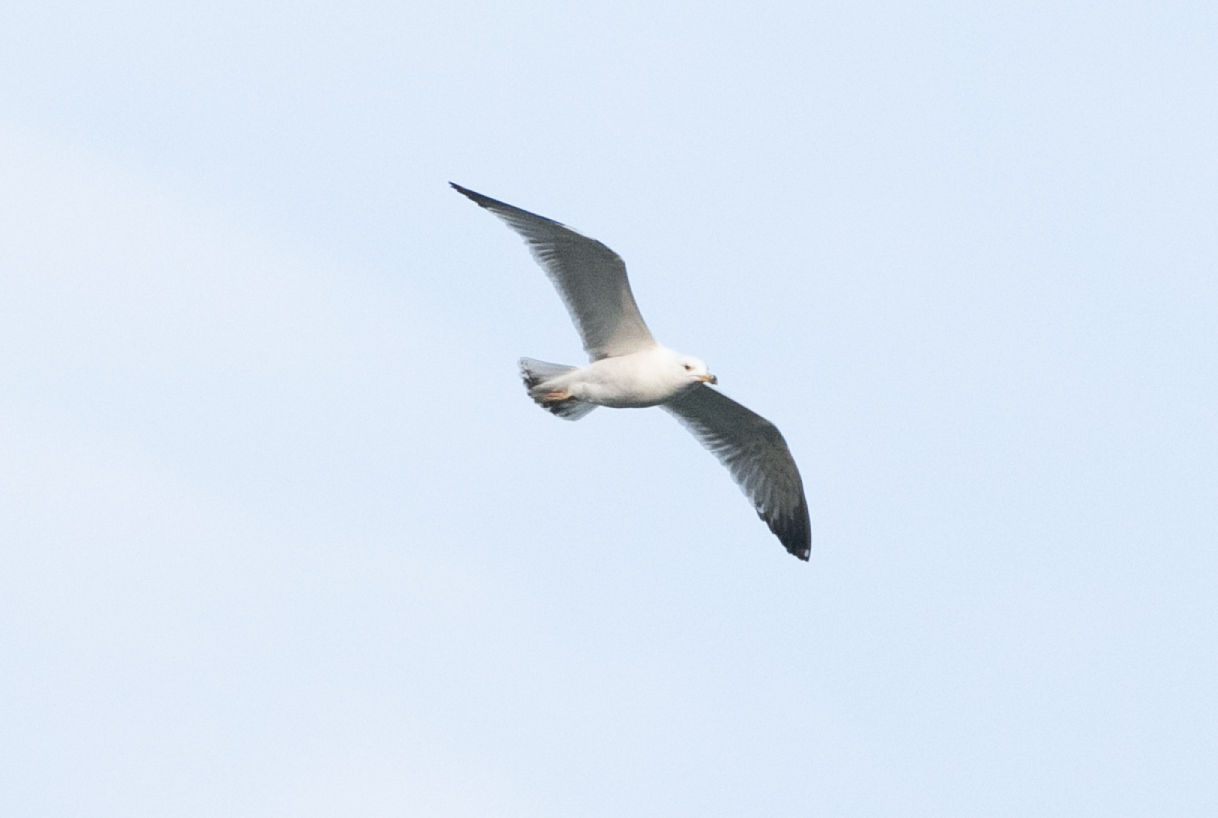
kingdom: Animalia
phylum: Chordata
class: Aves
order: Charadriiformes
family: Laridae
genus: Larus
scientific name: Larus michahellis
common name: Yellow-legged gull
